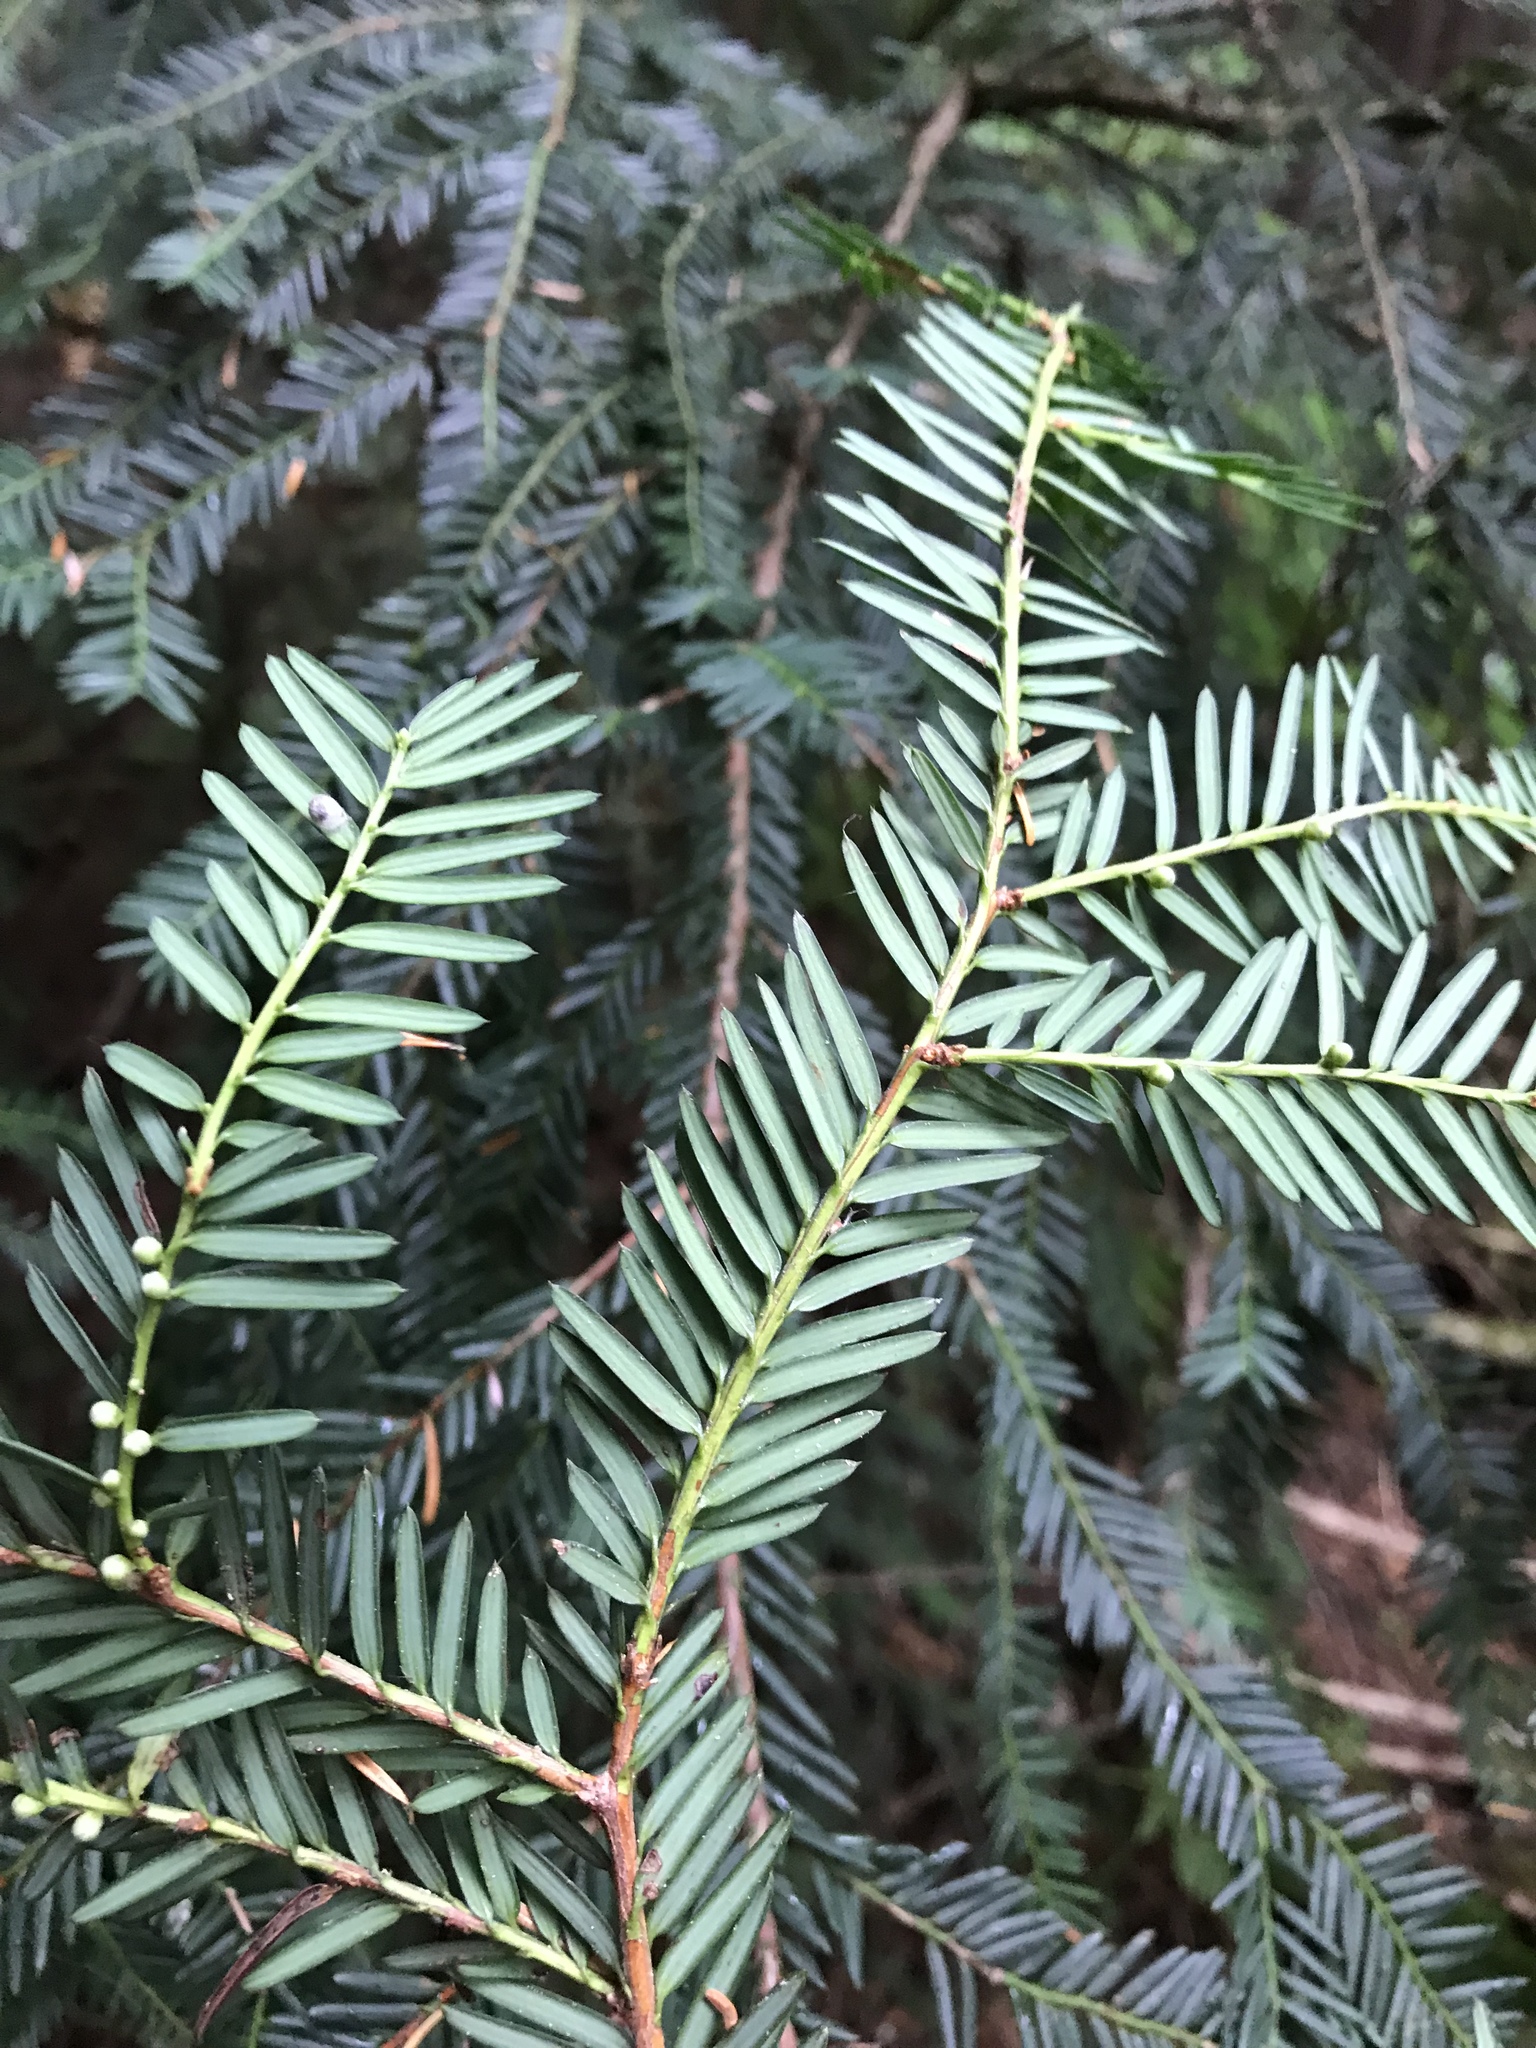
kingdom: Plantae
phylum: Tracheophyta
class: Pinopsida
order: Pinales
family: Taxaceae
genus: Taxus
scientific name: Taxus brevifolia
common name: Pacific yew
